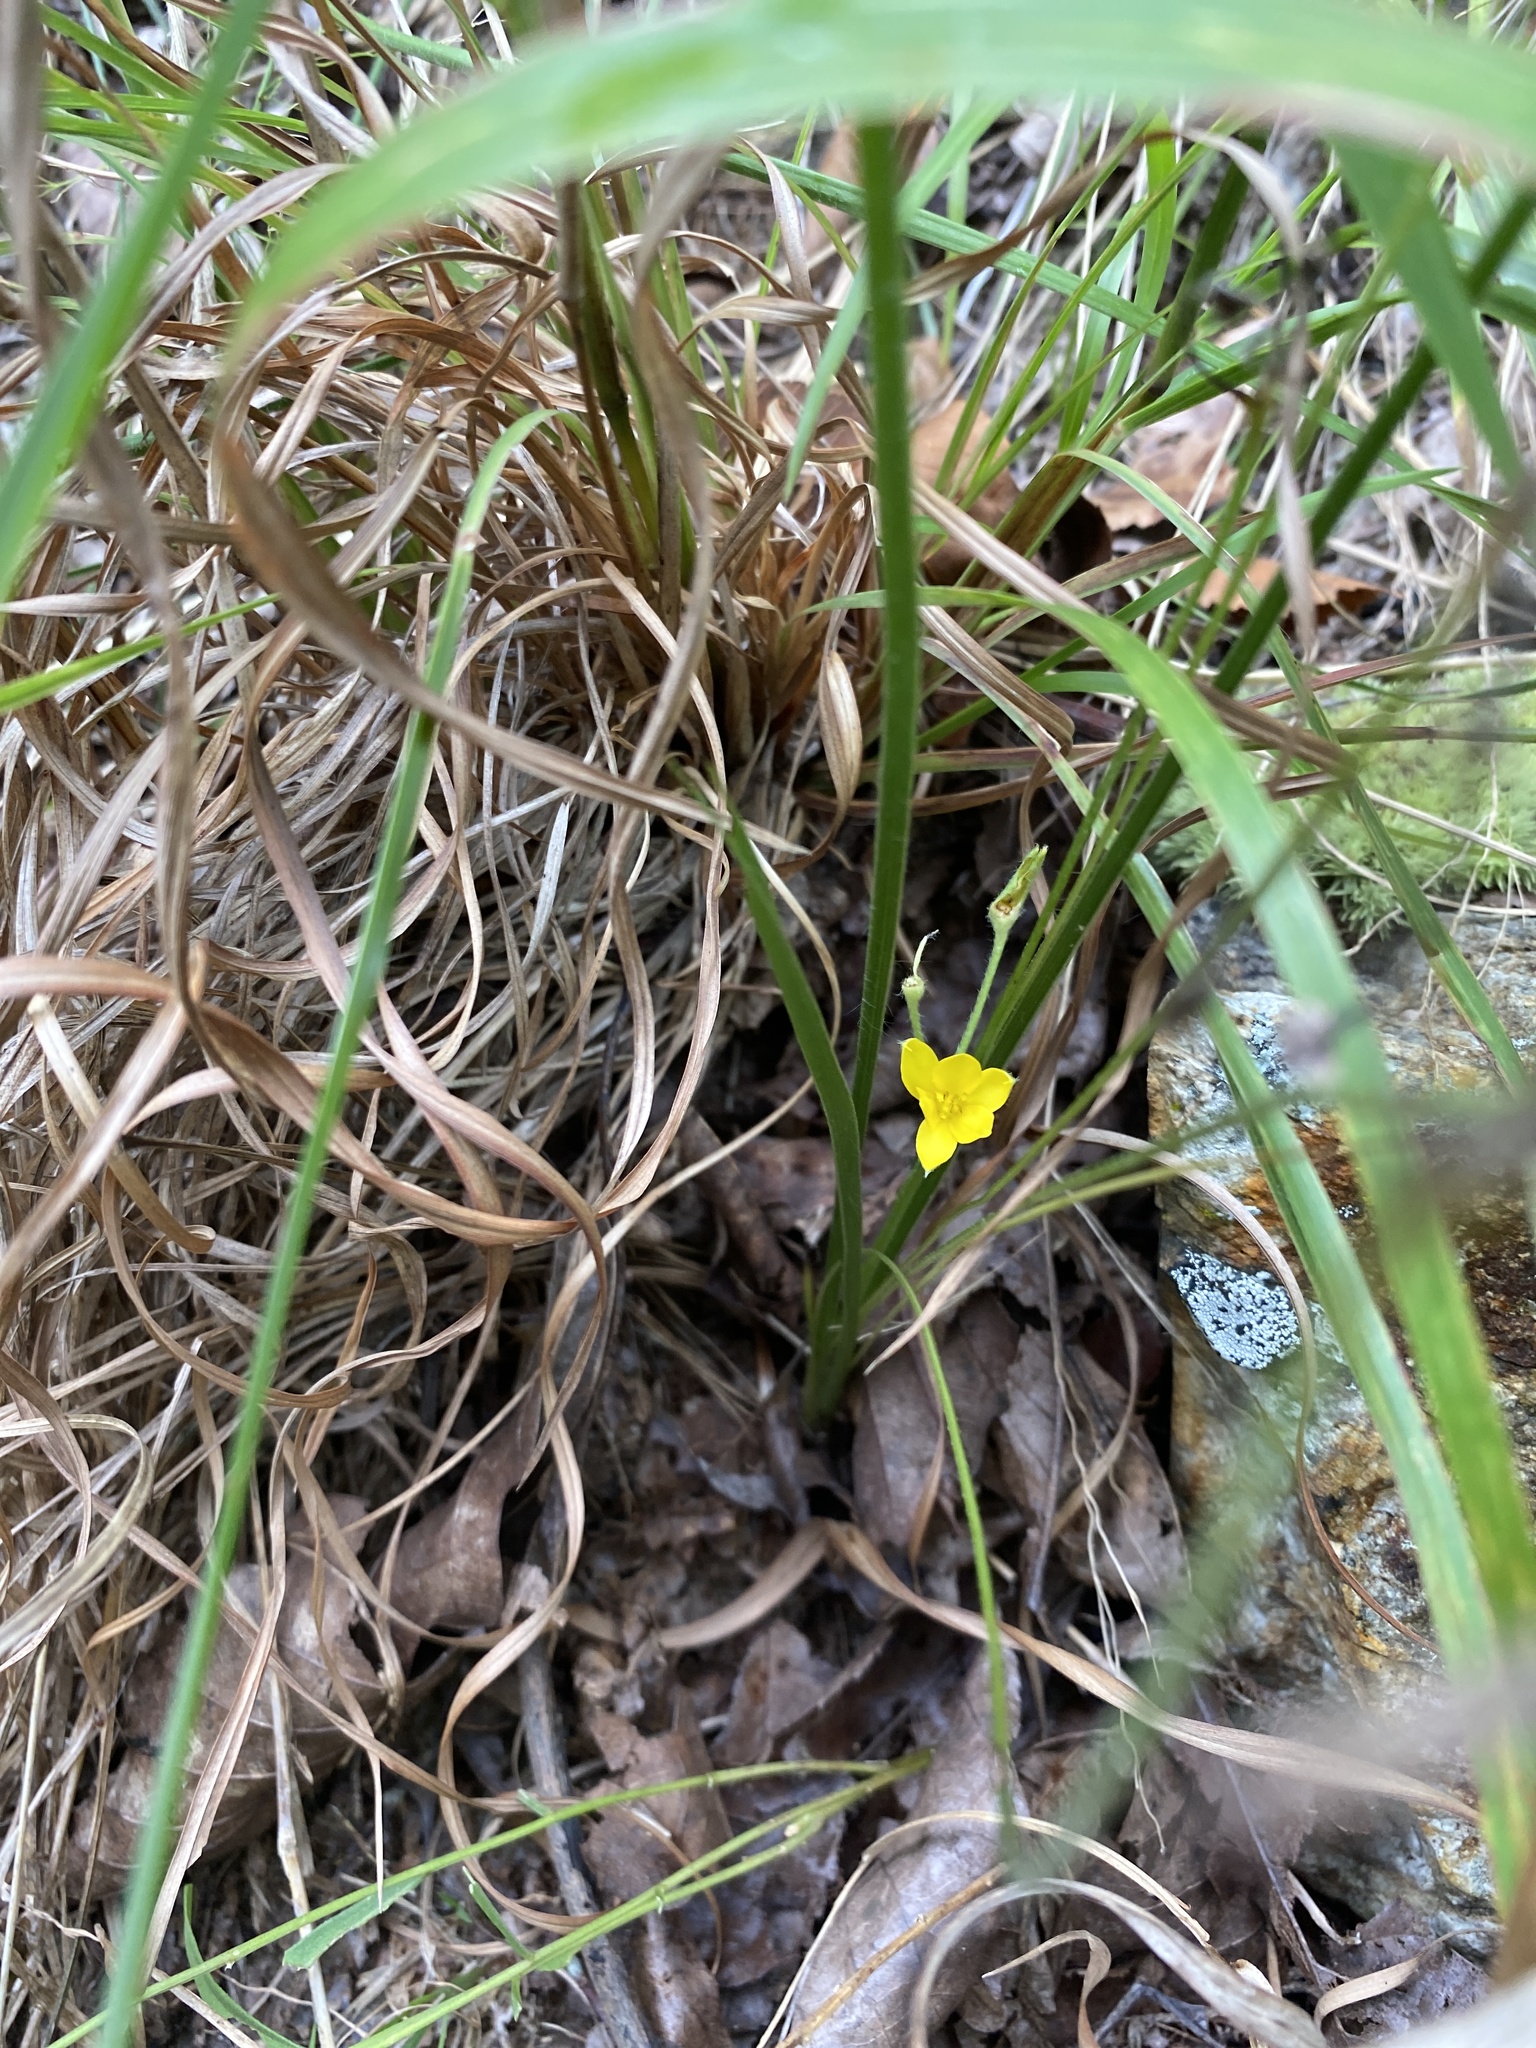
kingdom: Plantae
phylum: Tracheophyta
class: Liliopsida
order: Asparagales
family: Hypoxidaceae
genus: Hypoxis
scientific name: Hypoxis hirsuta
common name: Common goldstar
